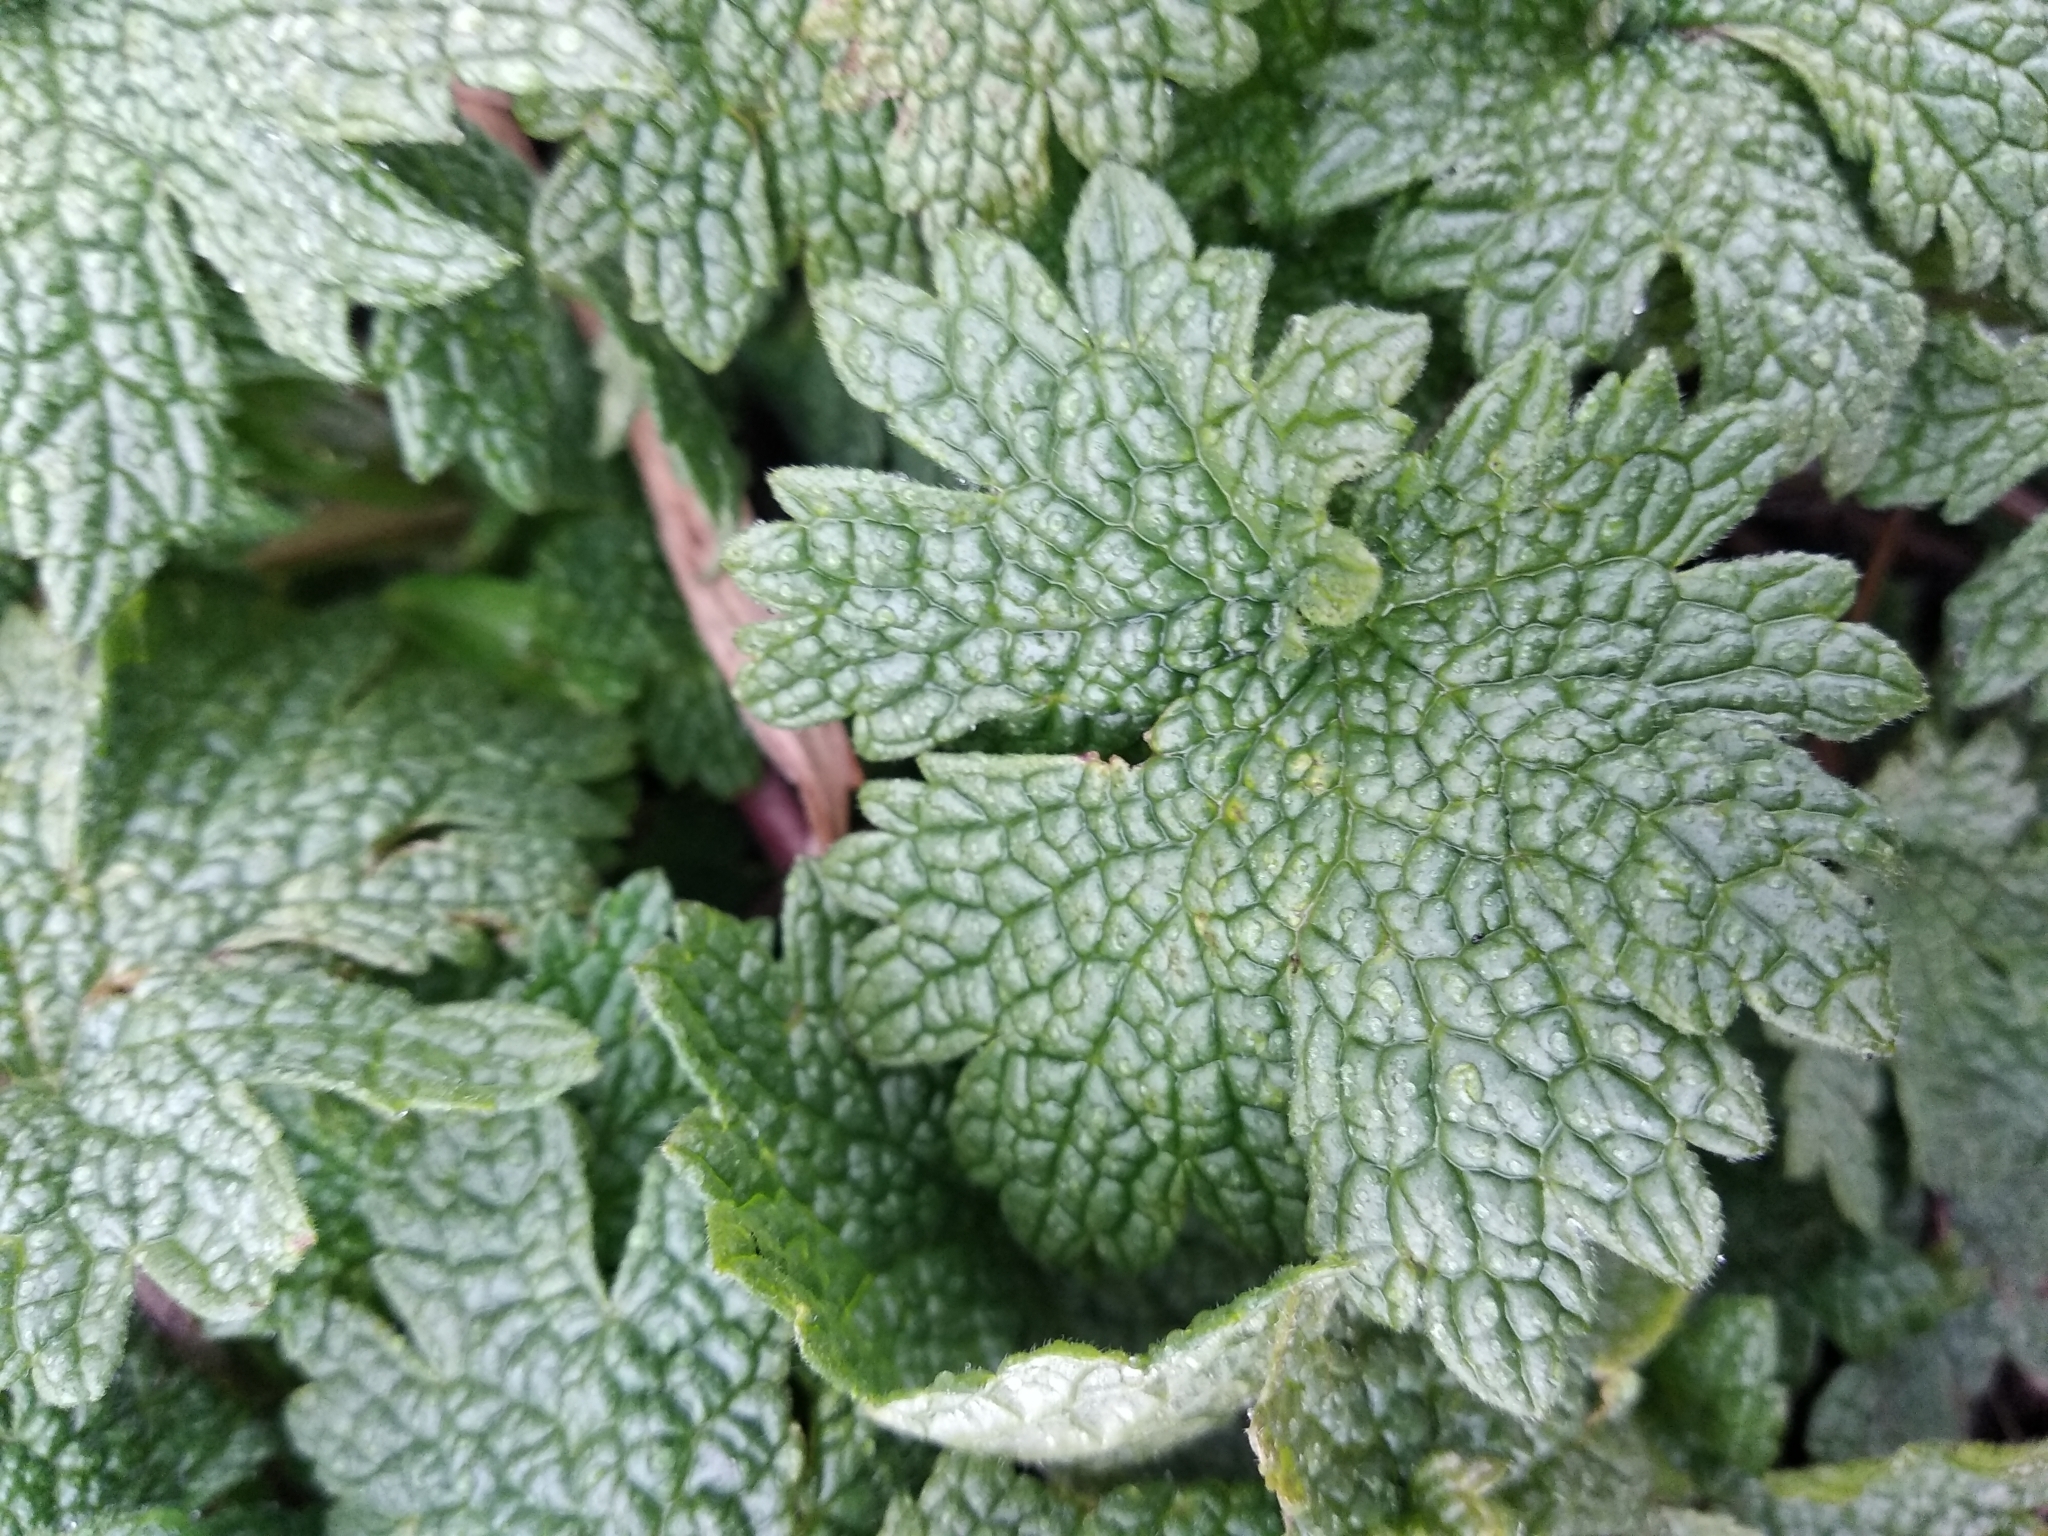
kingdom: Plantae
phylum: Tracheophyta
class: Magnoliopsida
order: Lamiales
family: Lamiaceae
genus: Leonurus
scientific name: Leonurus cardiaca
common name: Motherwort
